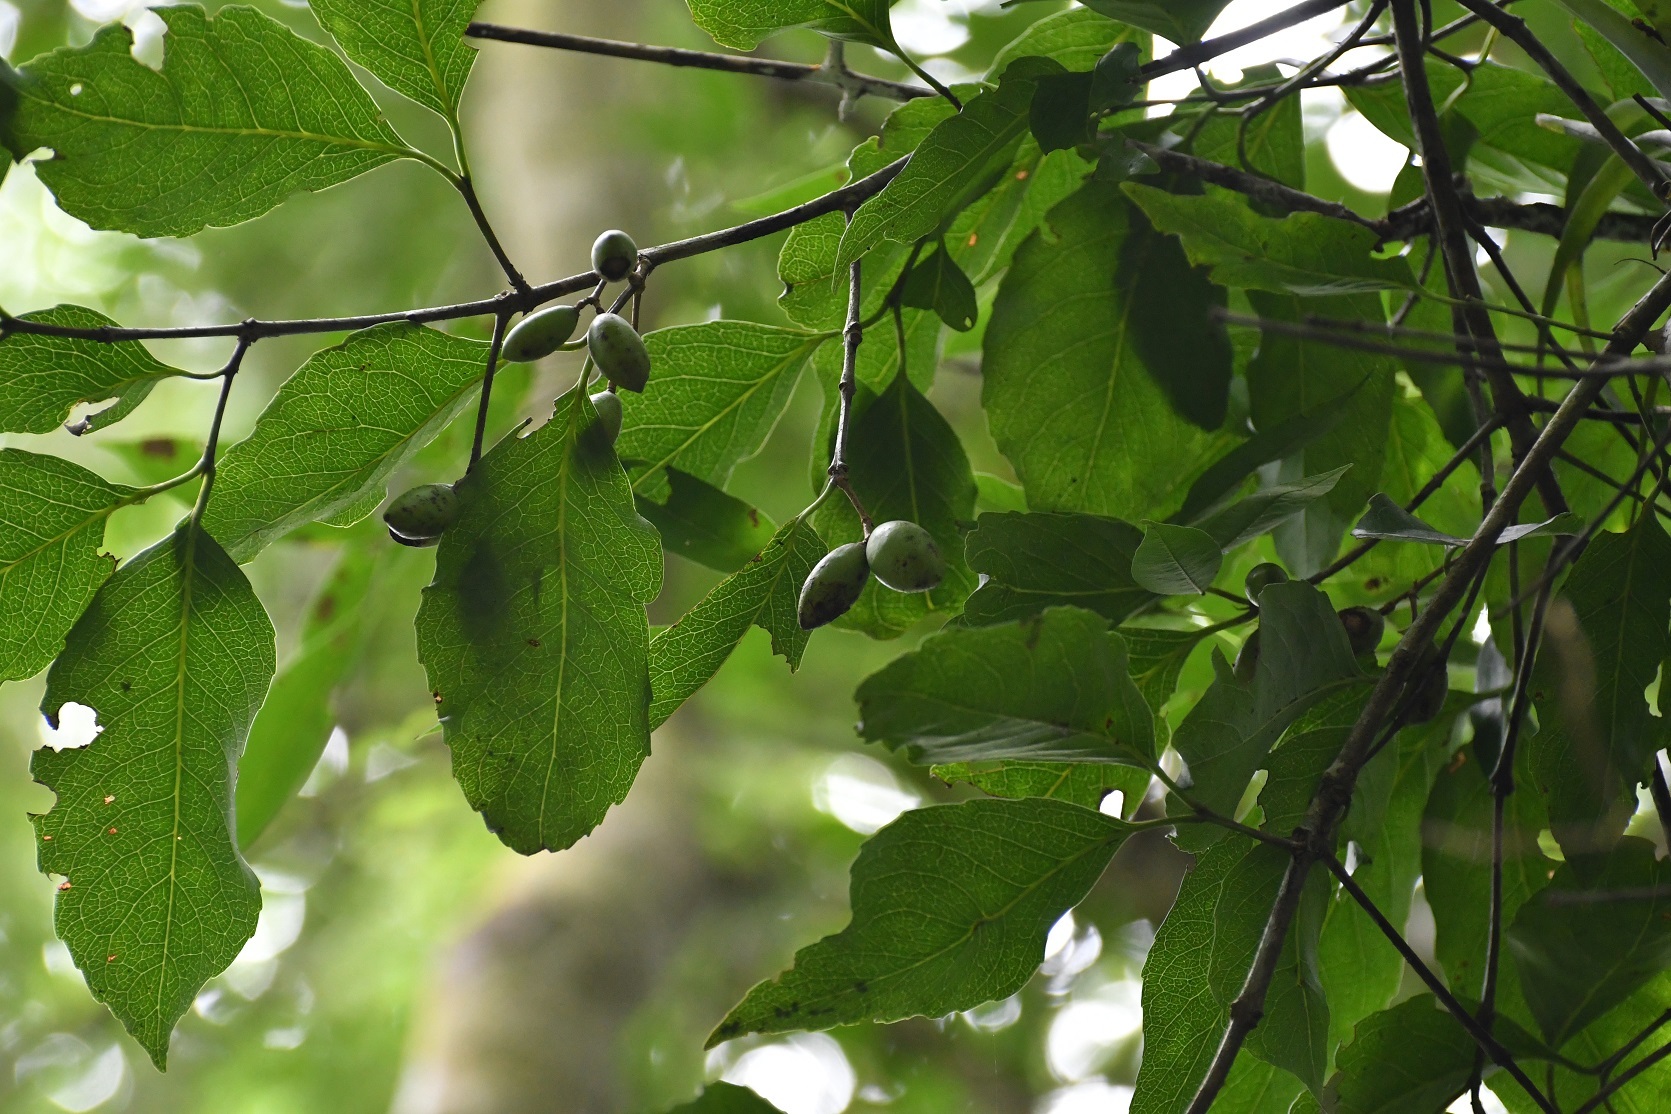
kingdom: Plantae
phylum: Tracheophyta
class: Magnoliopsida
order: Celastrales
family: Celastraceae
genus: Elaeodendron
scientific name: Elaeodendron xylocarpum
